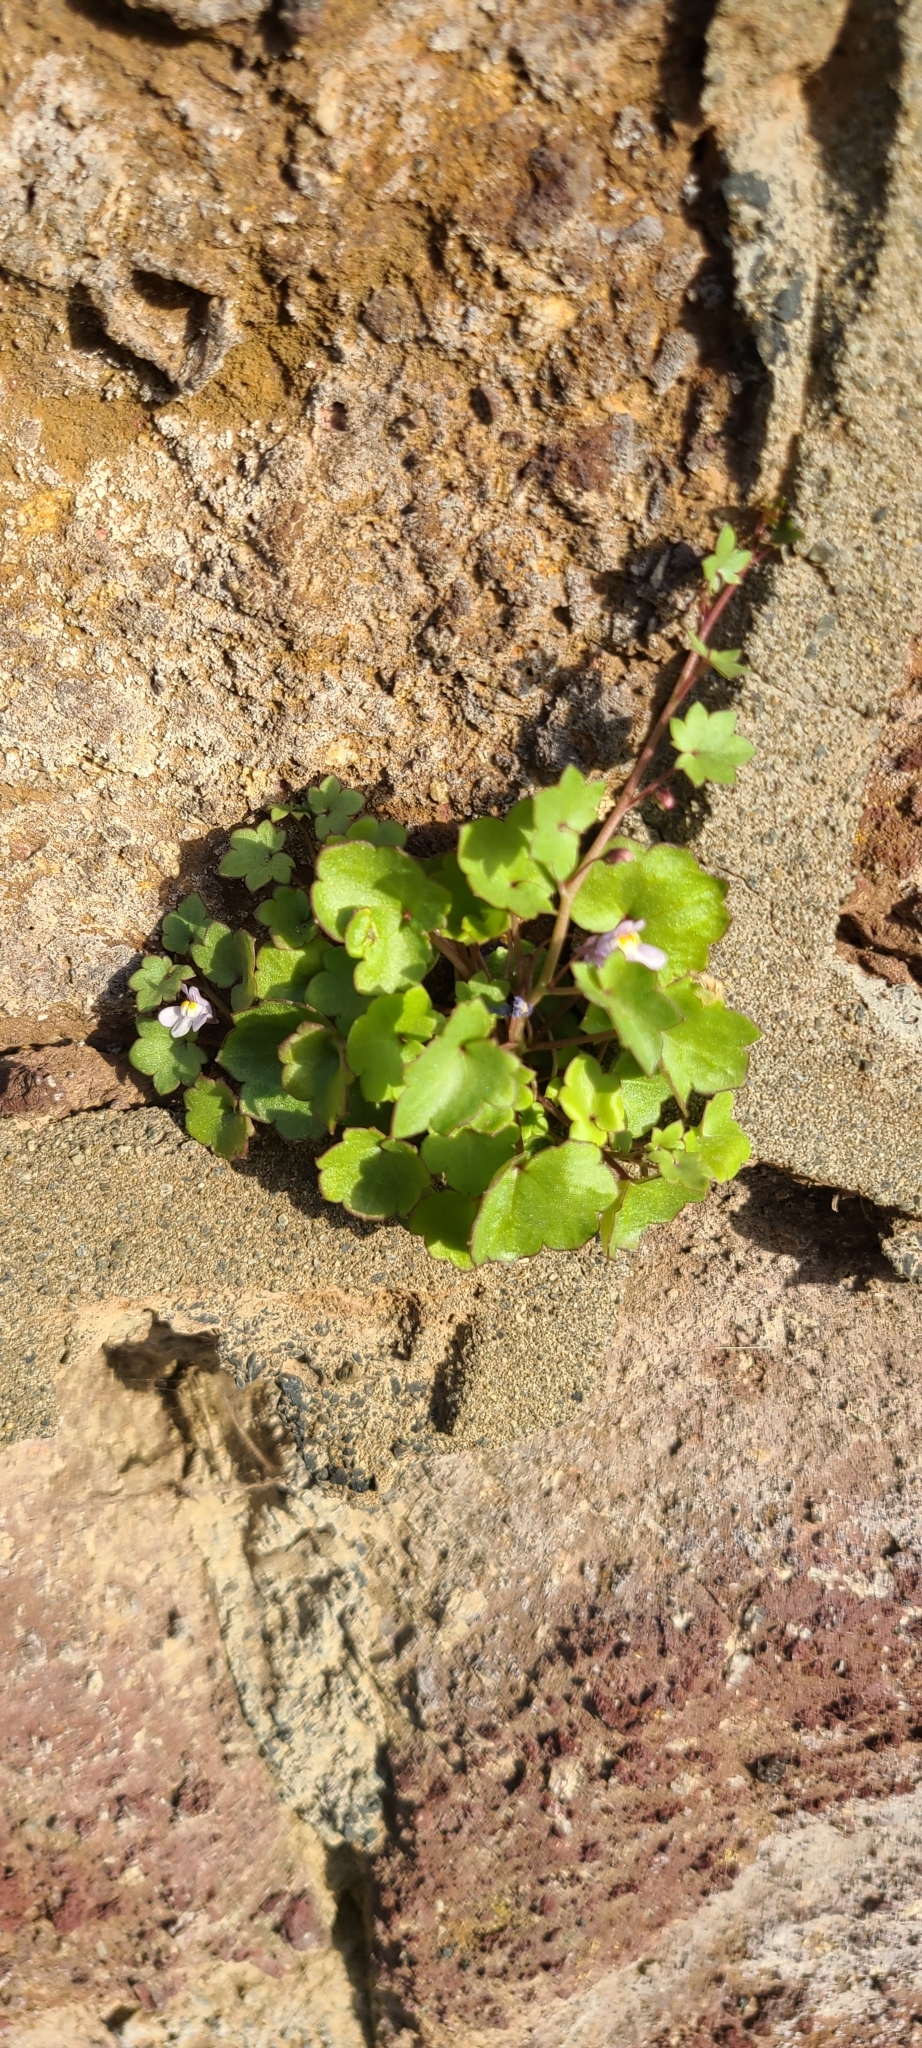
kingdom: Plantae
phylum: Tracheophyta
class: Magnoliopsida
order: Lamiales
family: Plantaginaceae
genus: Cymbalaria
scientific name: Cymbalaria muralis
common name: Ivy-leaved toadflax
